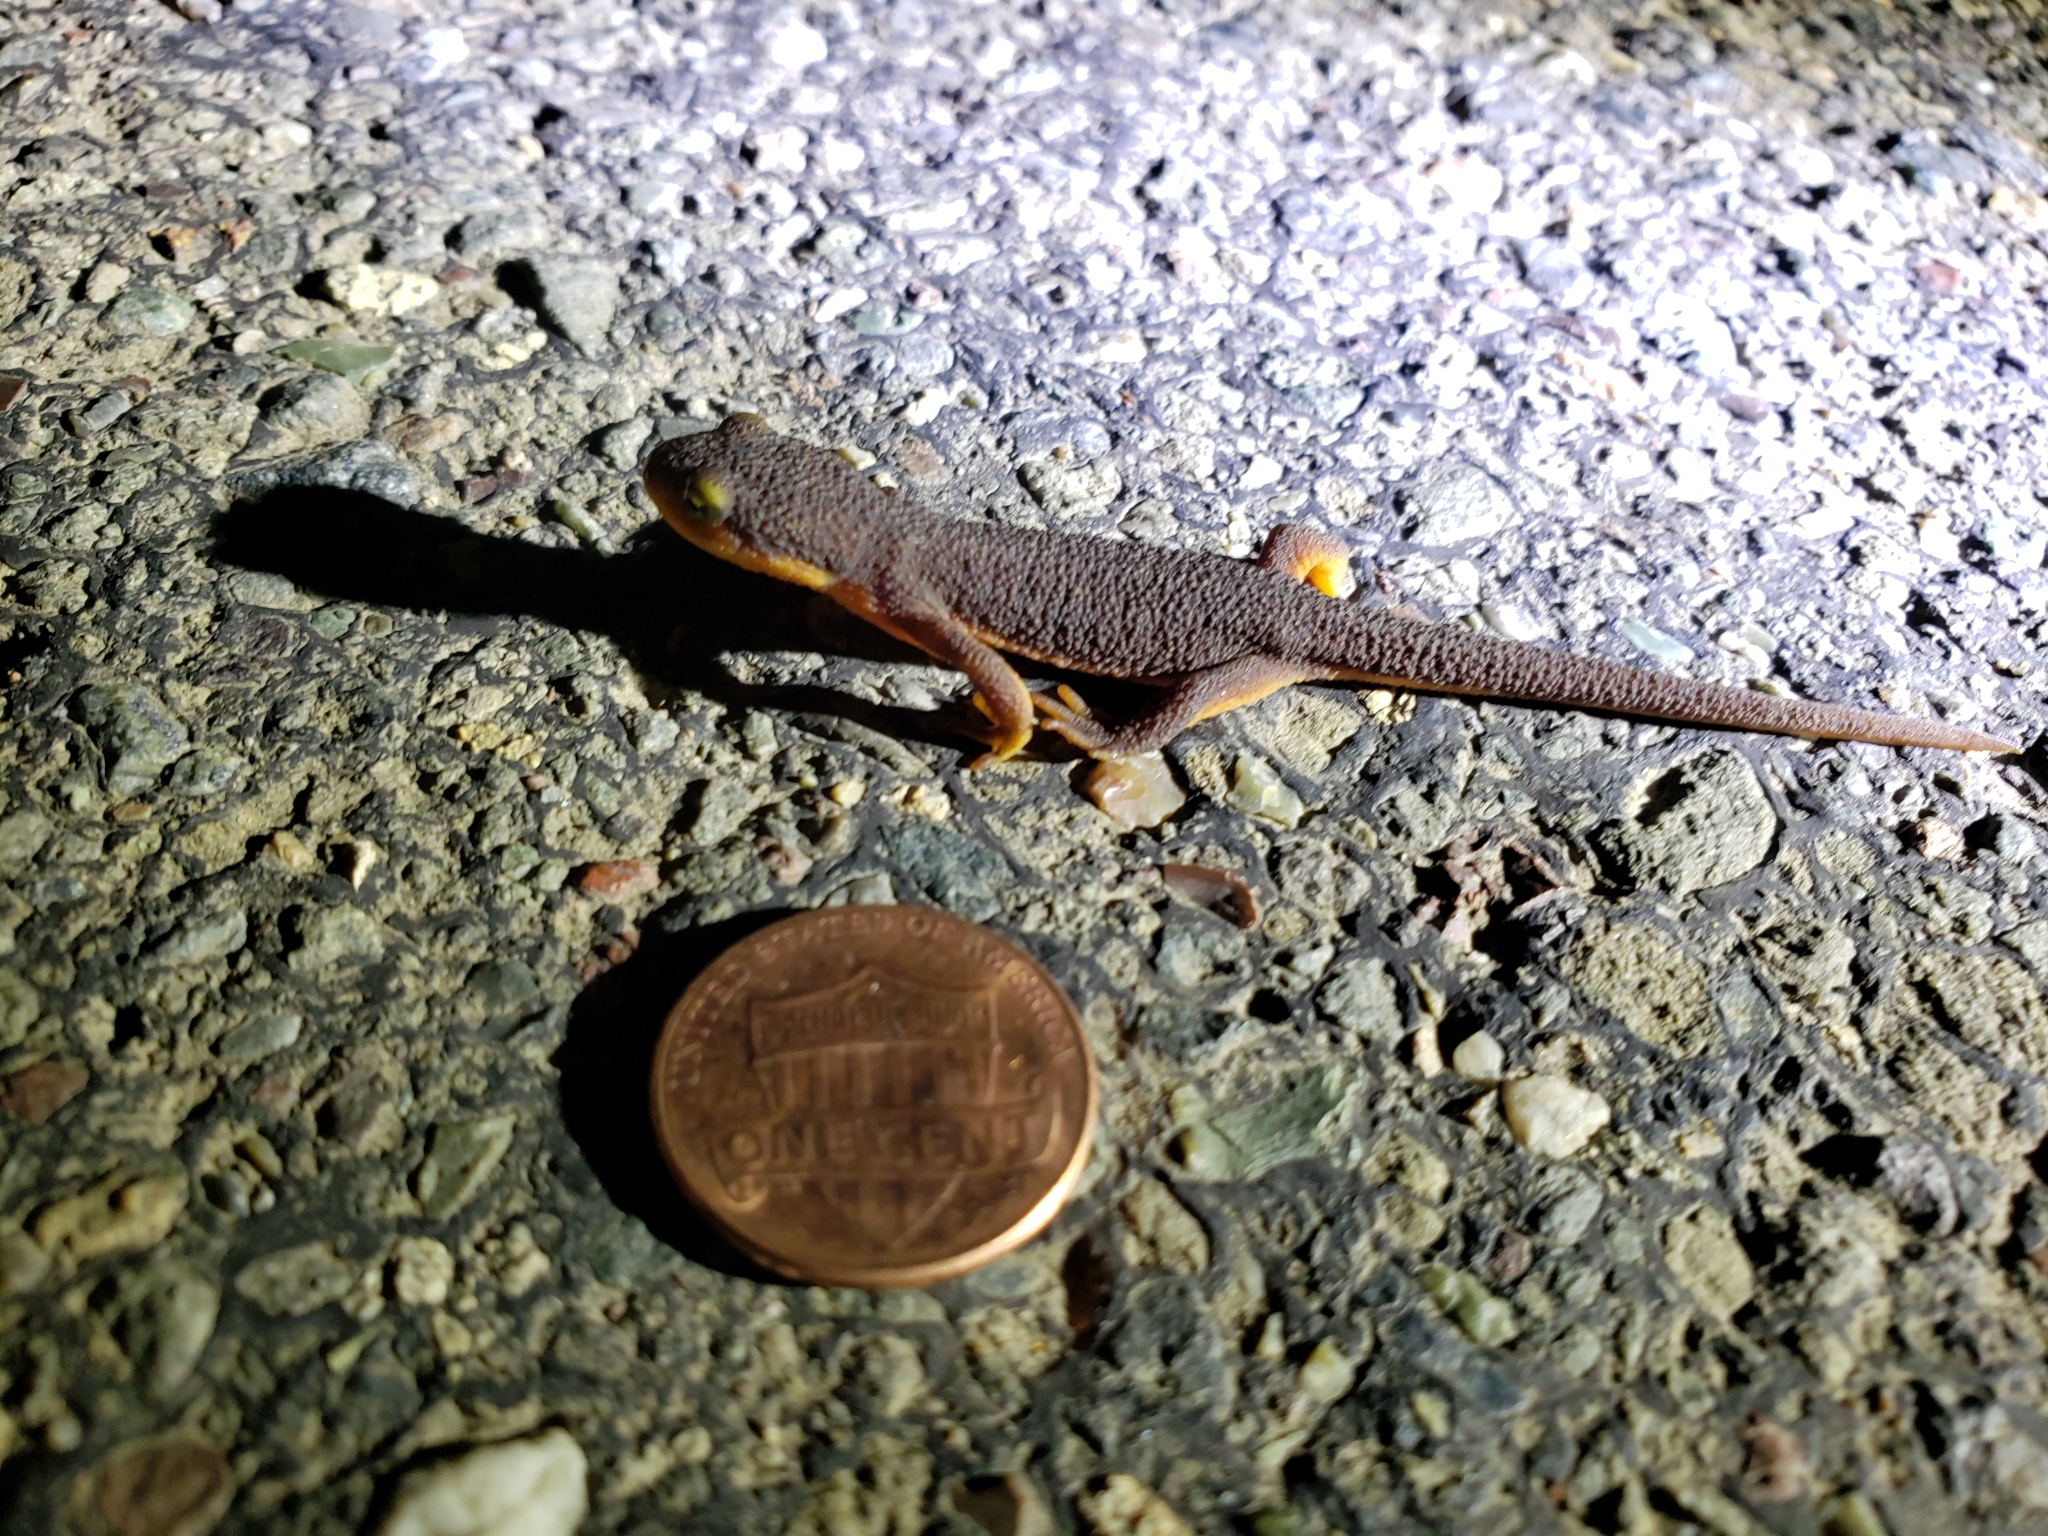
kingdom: Animalia
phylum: Chordata
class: Amphibia
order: Caudata
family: Salamandridae
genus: Taricha
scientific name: Taricha torosa
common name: California newt
